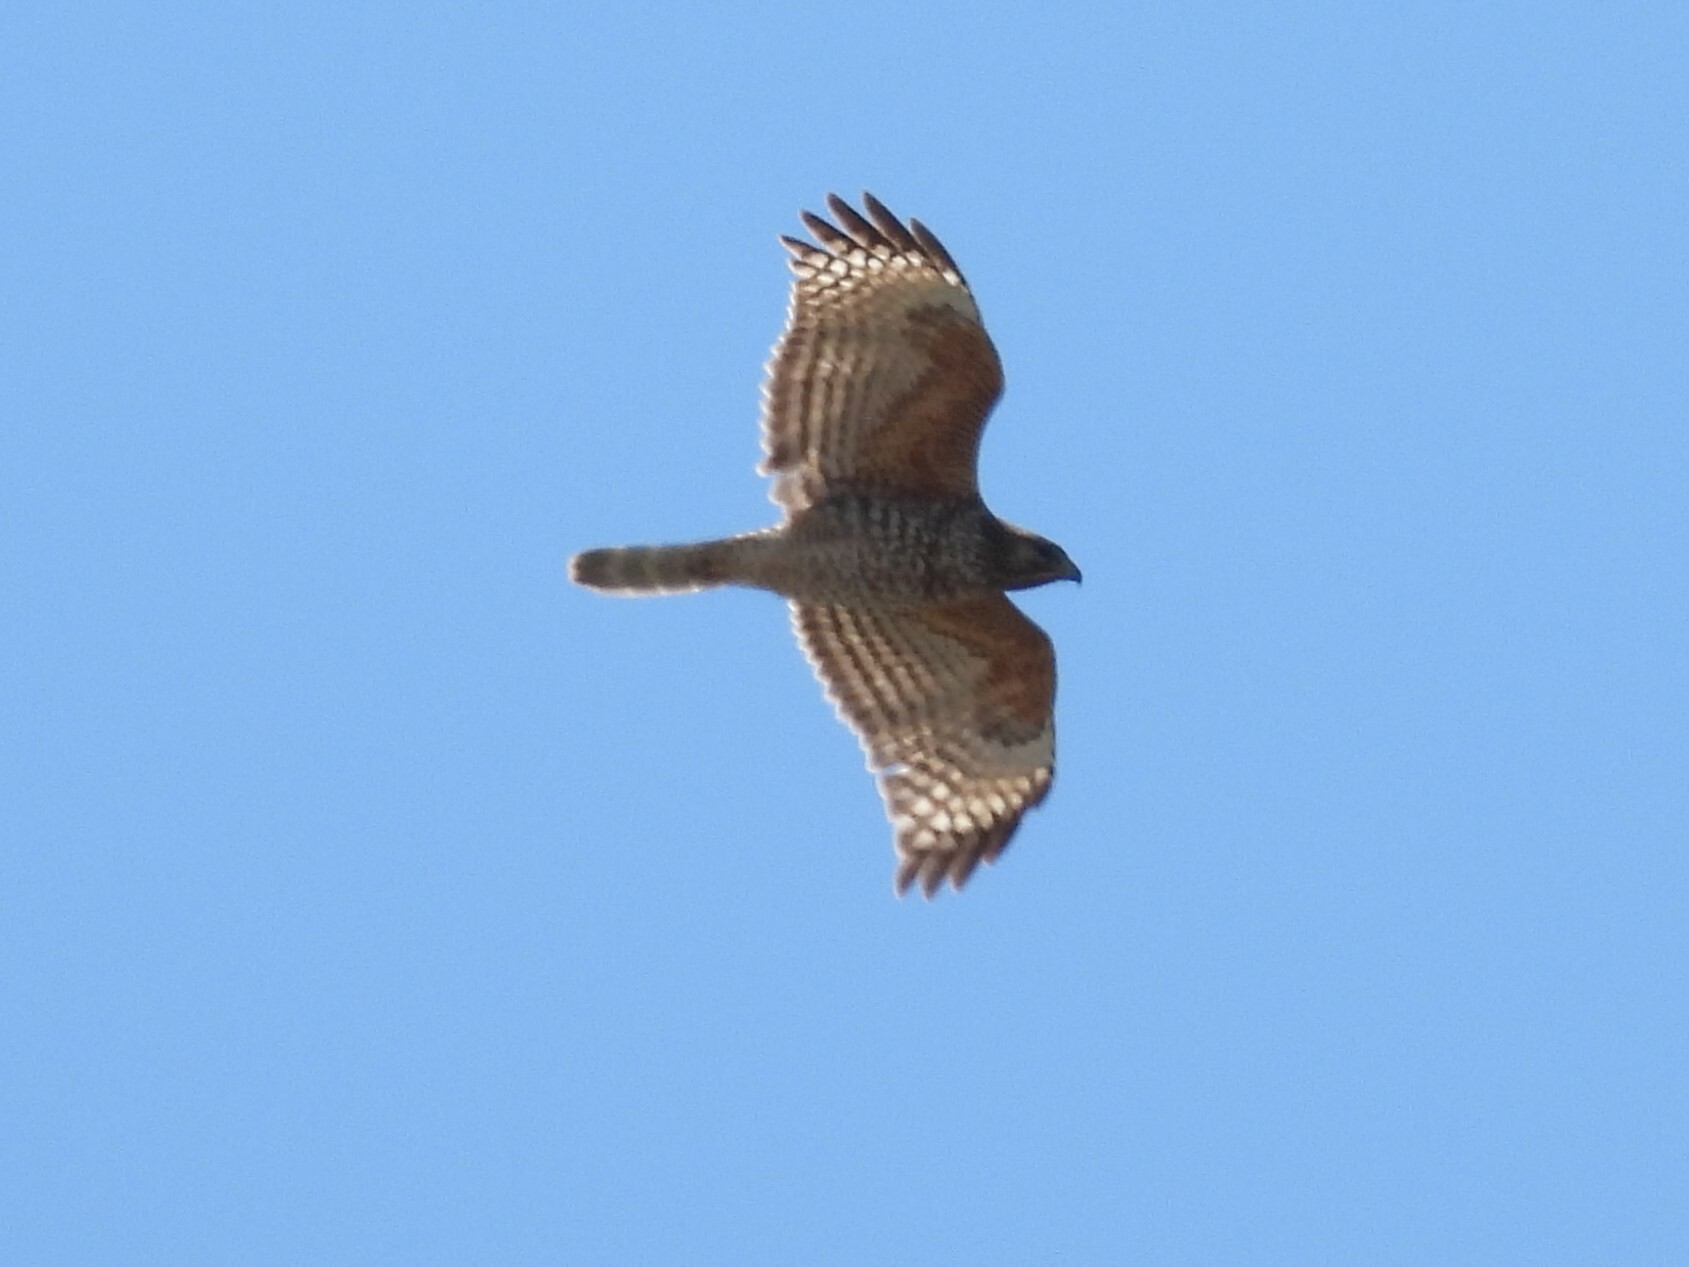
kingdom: Animalia
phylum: Chordata
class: Aves
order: Accipitriformes
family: Accipitridae
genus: Buteo
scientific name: Buteo lineatus
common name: Red-shouldered hawk
